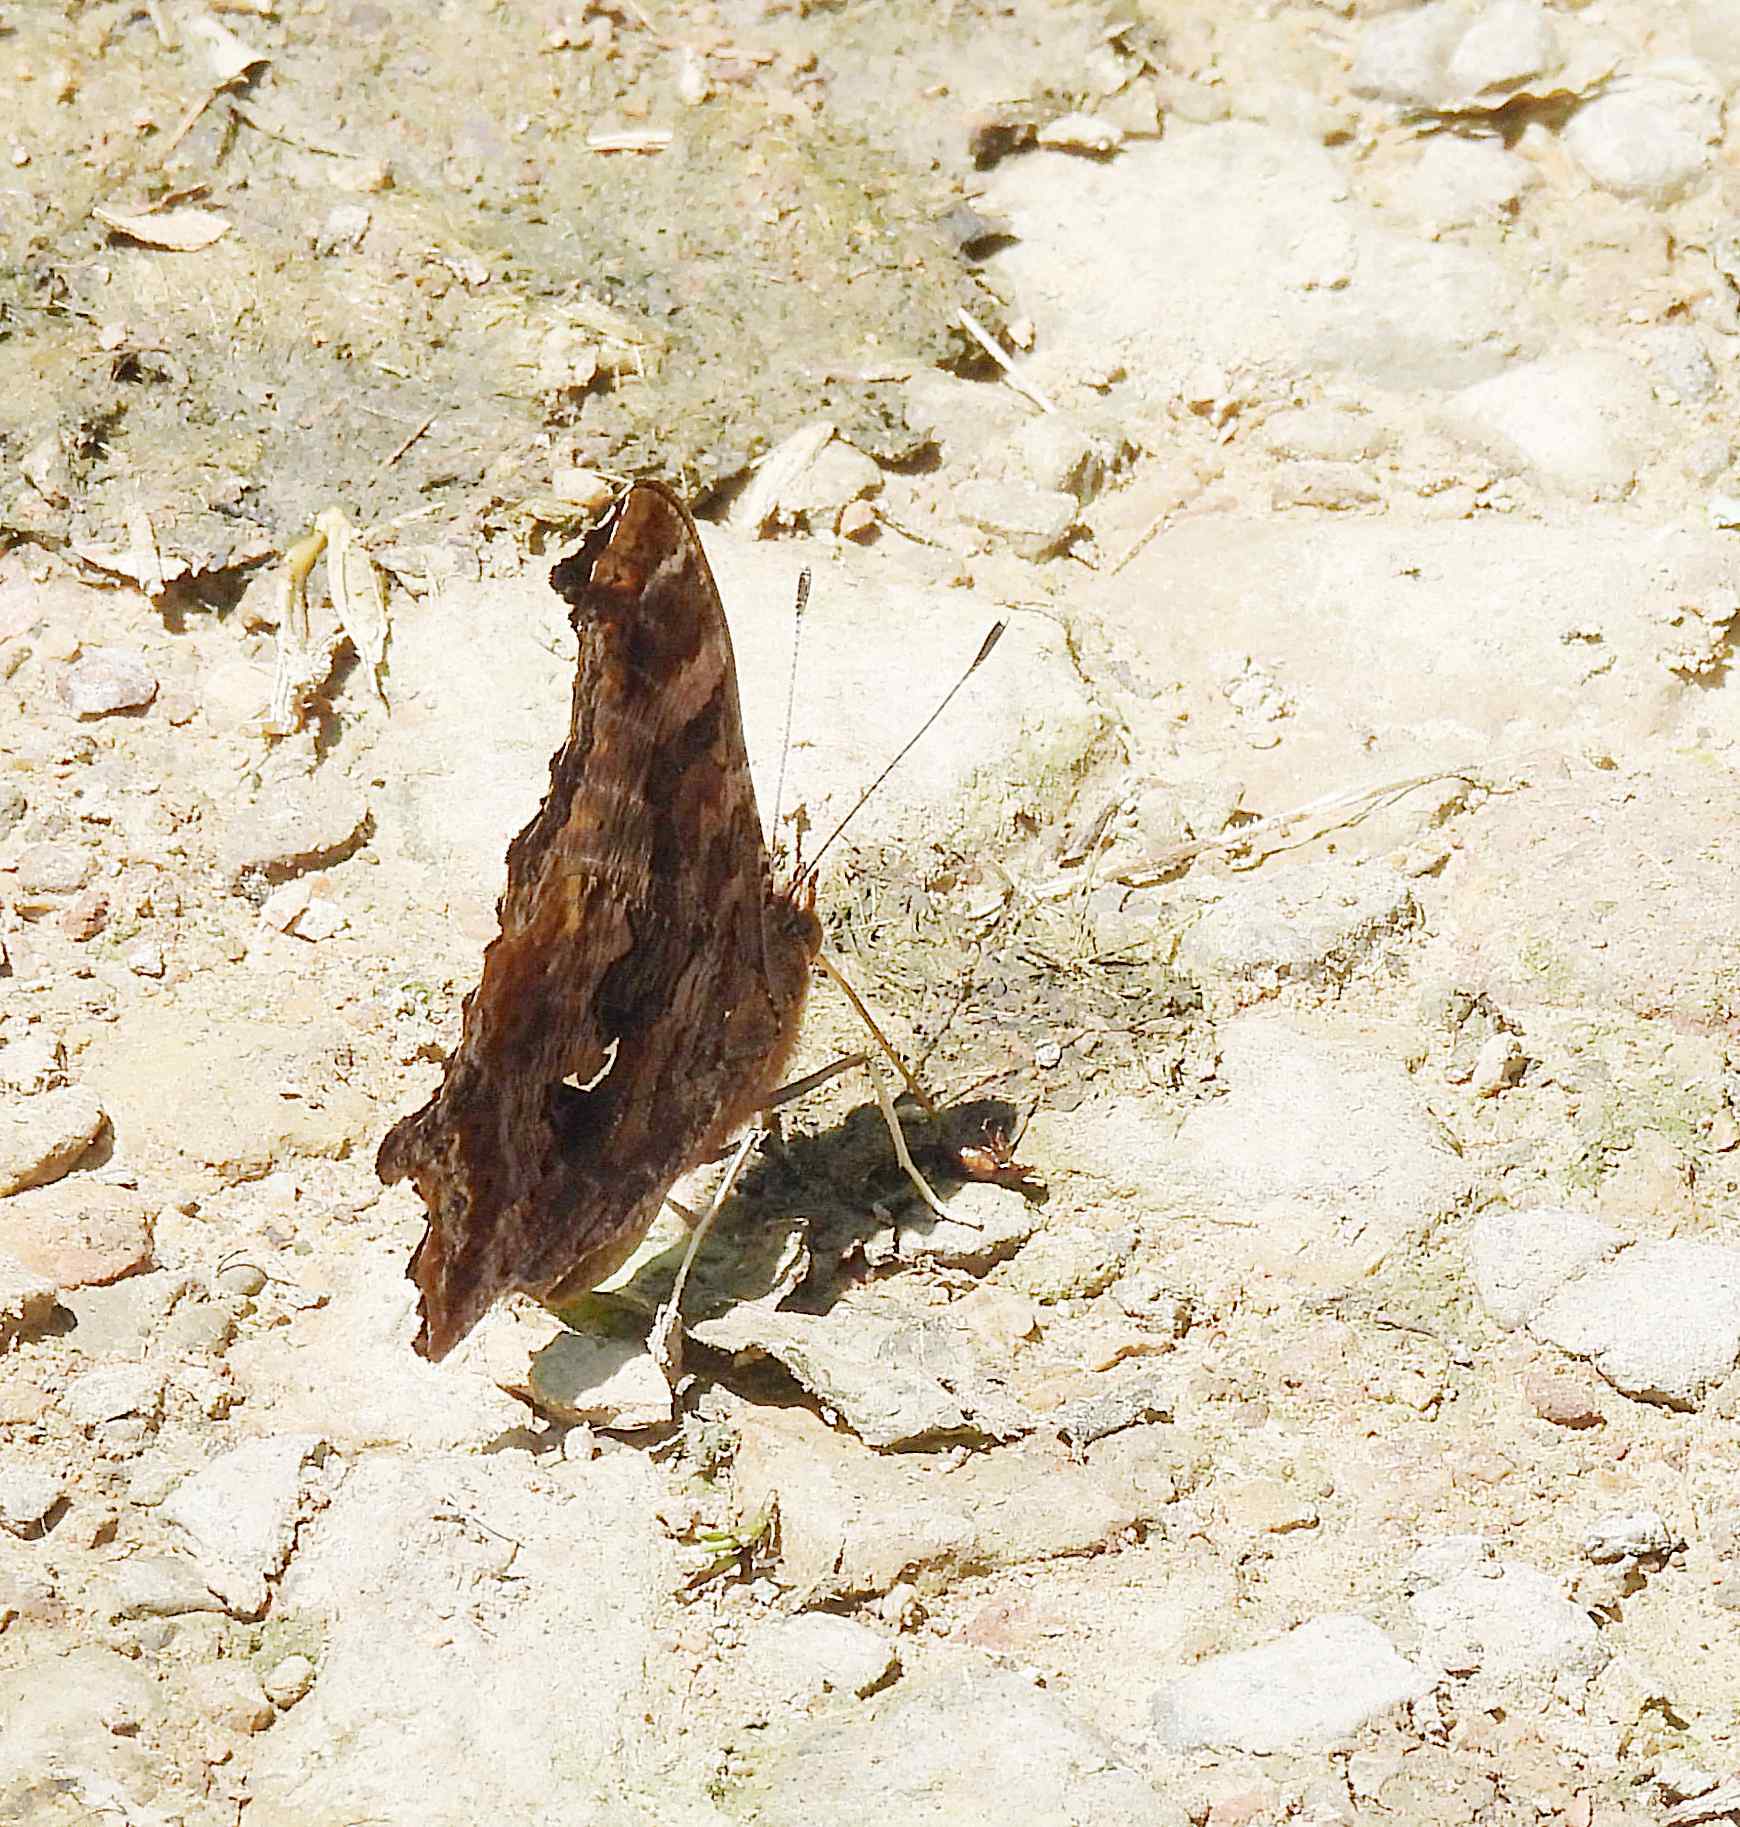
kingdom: Animalia
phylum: Arthropoda
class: Insecta
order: Lepidoptera
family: Nymphalidae
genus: Polygonia
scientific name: Polygonia comma
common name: Eastern comma
